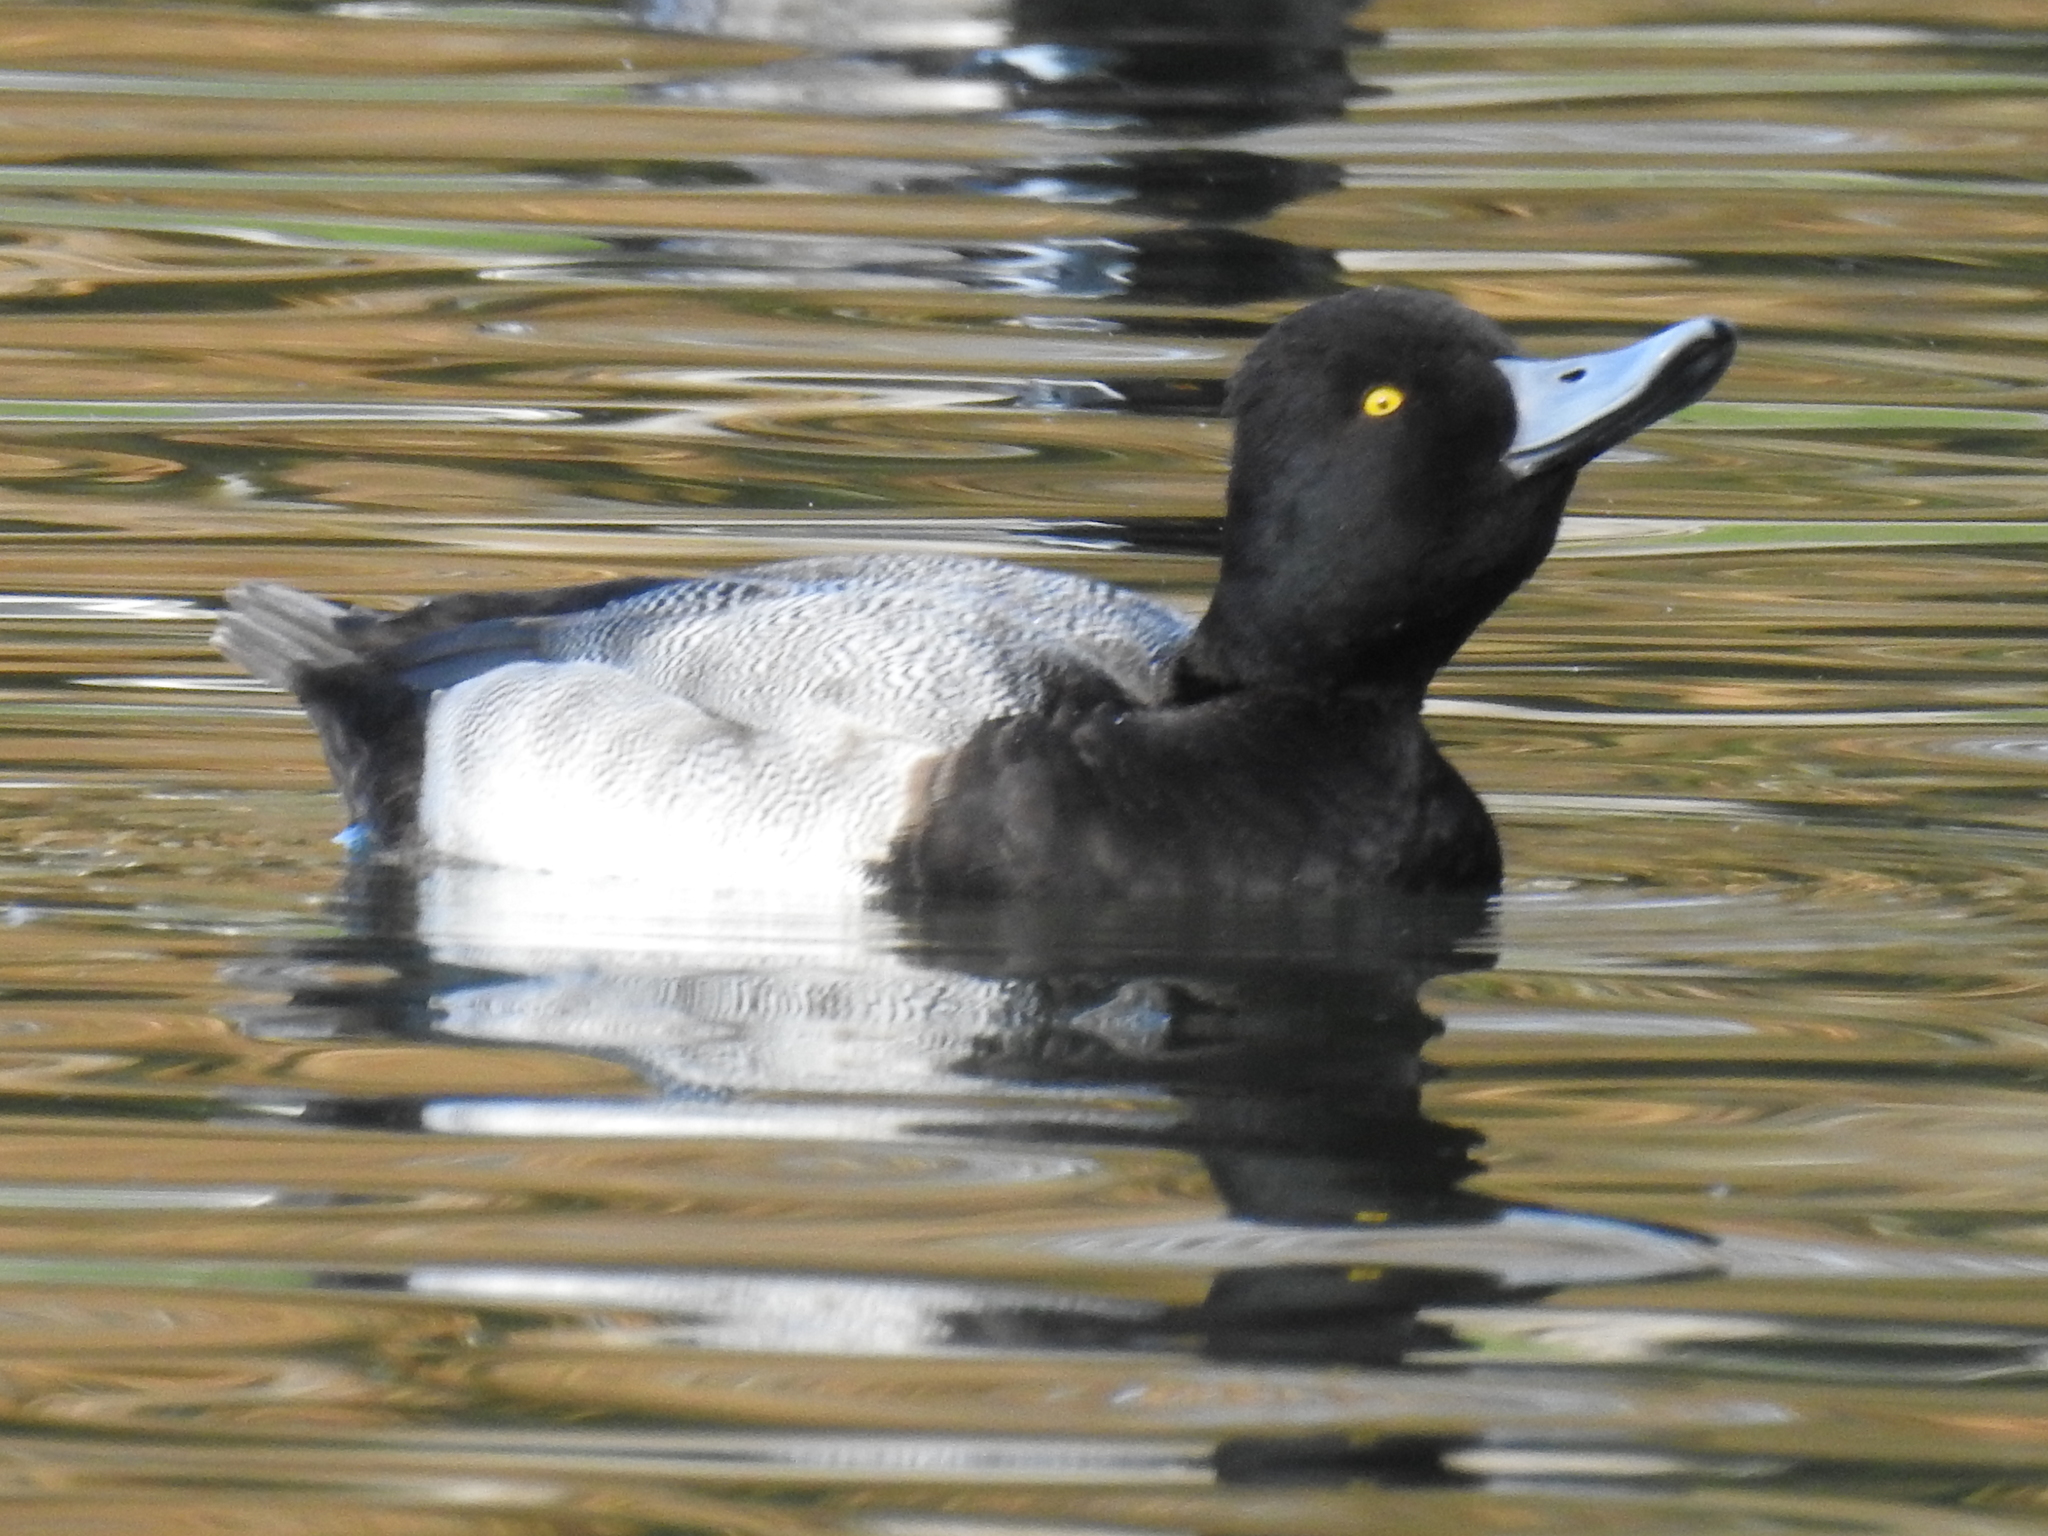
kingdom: Animalia
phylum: Chordata
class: Aves
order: Anseriformes
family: Anatidae
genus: Aythya
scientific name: Aythya affinis
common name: Lesser scaup
